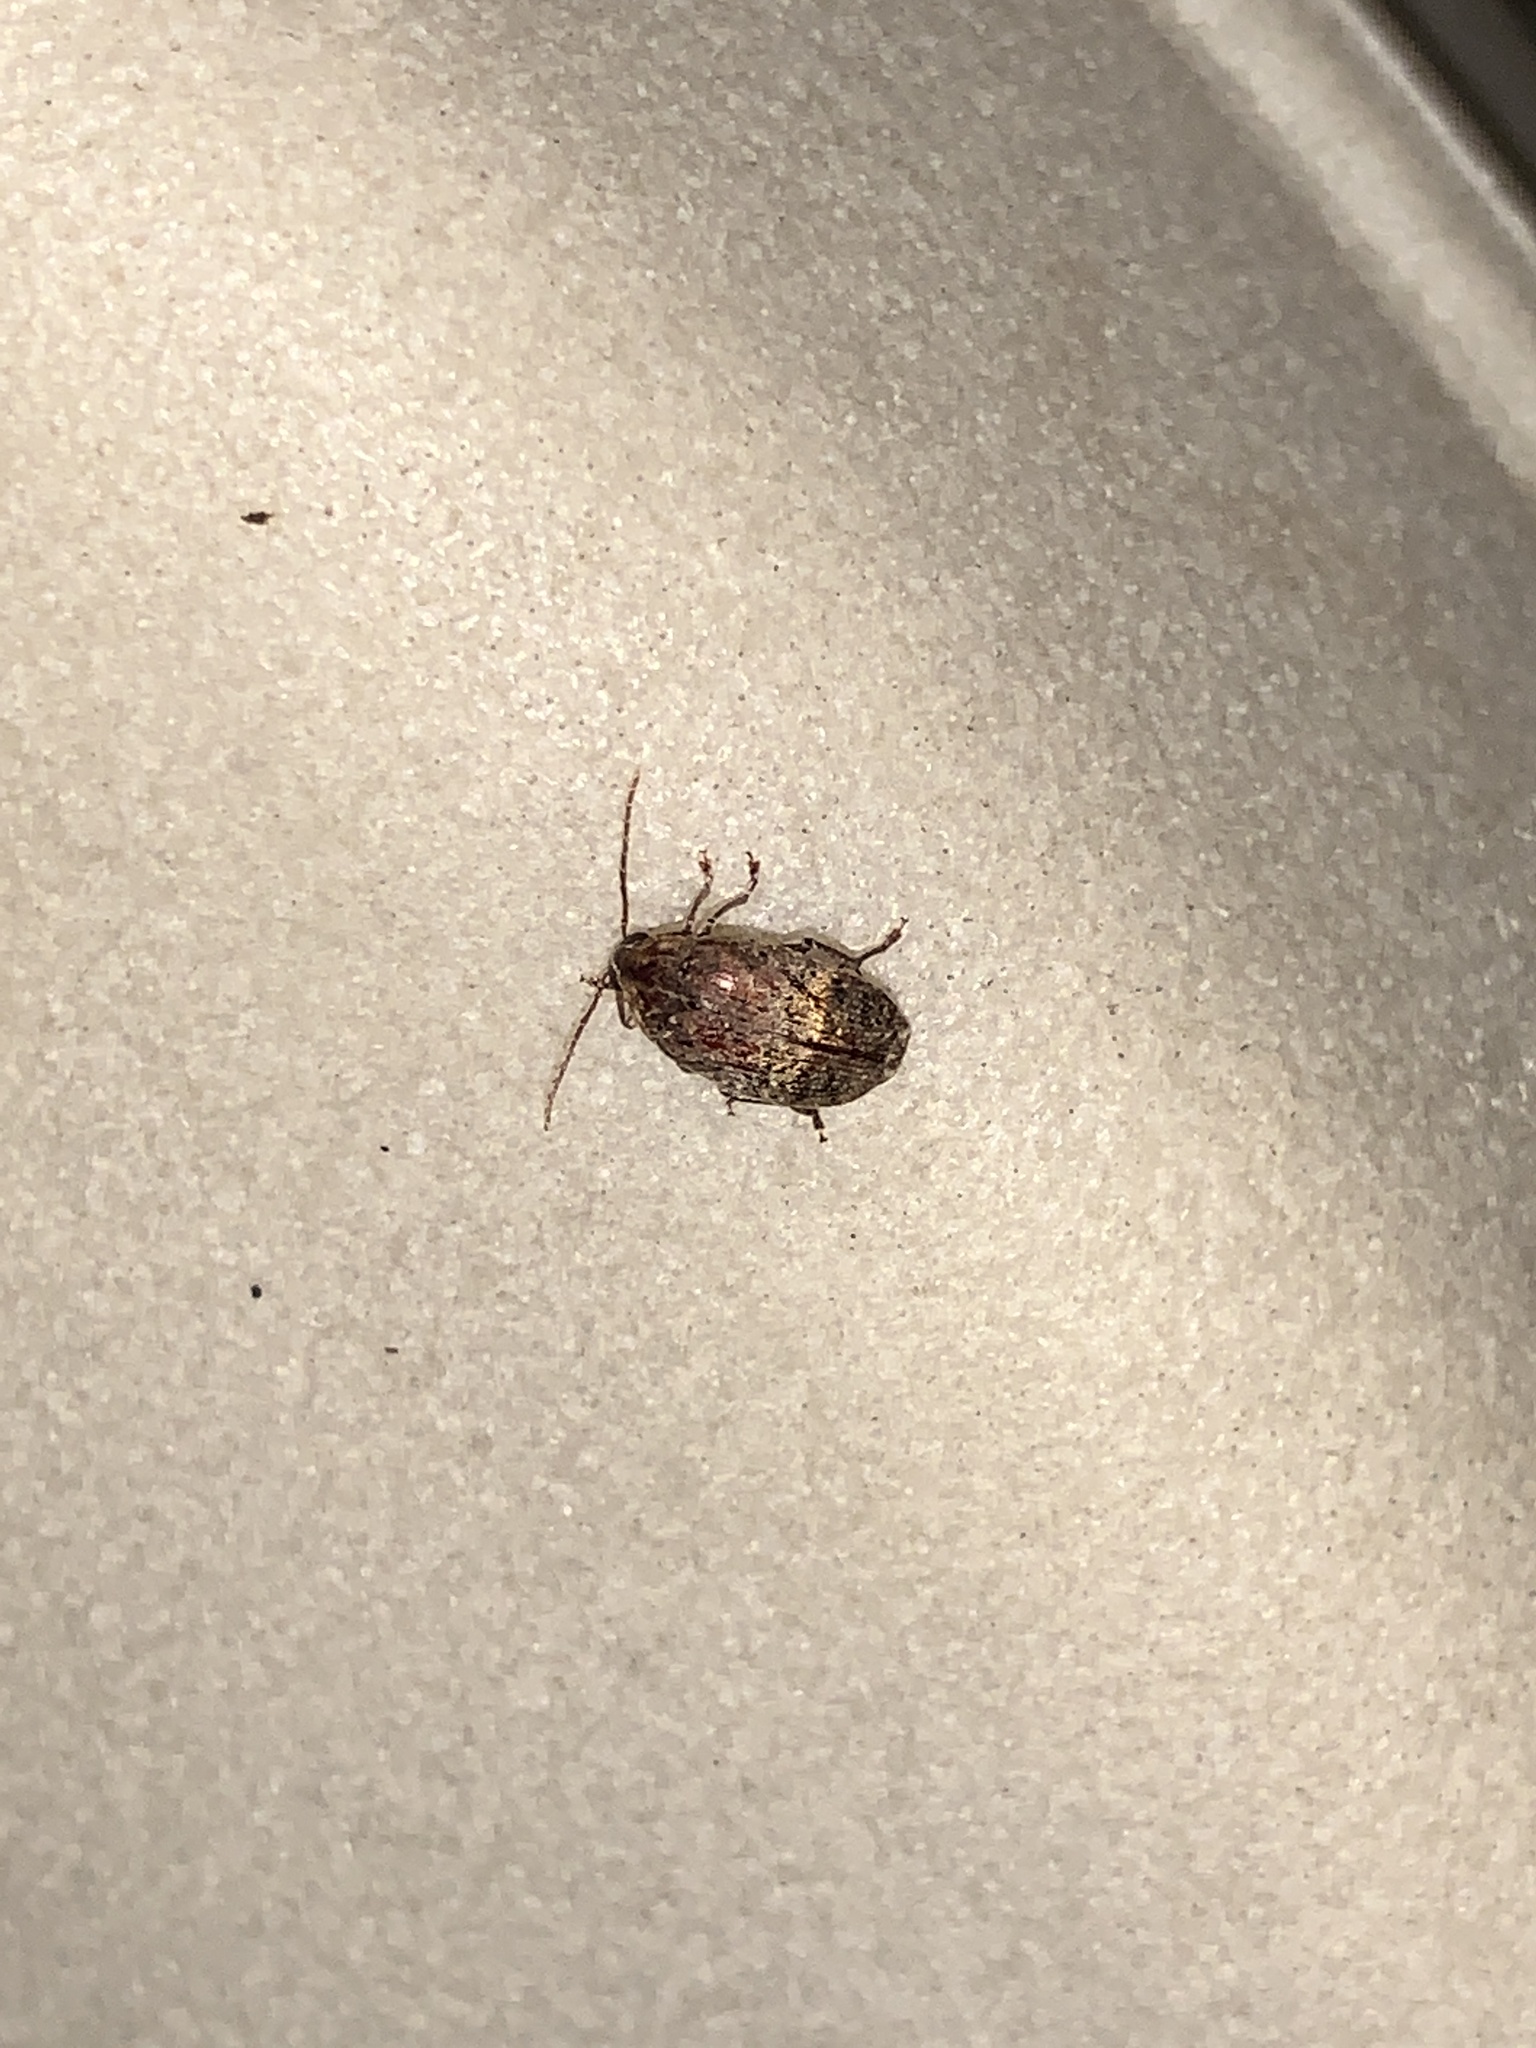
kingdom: Animalia
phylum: Arthropoda
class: Insecta
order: Coleoptera
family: Chrysomelidae
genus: Amblycerus
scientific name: Amblycerus robiniae
